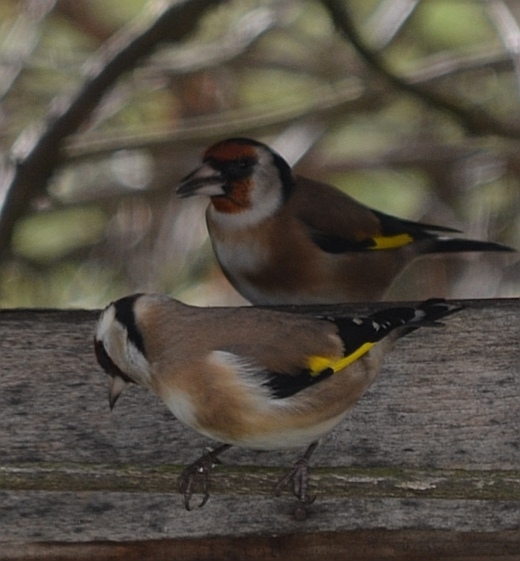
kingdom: Animalia
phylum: Chordata
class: Aves
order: Passeriformes
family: Fringillidae
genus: Carduelis
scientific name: Carduelis carduelis
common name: European goldfinch
